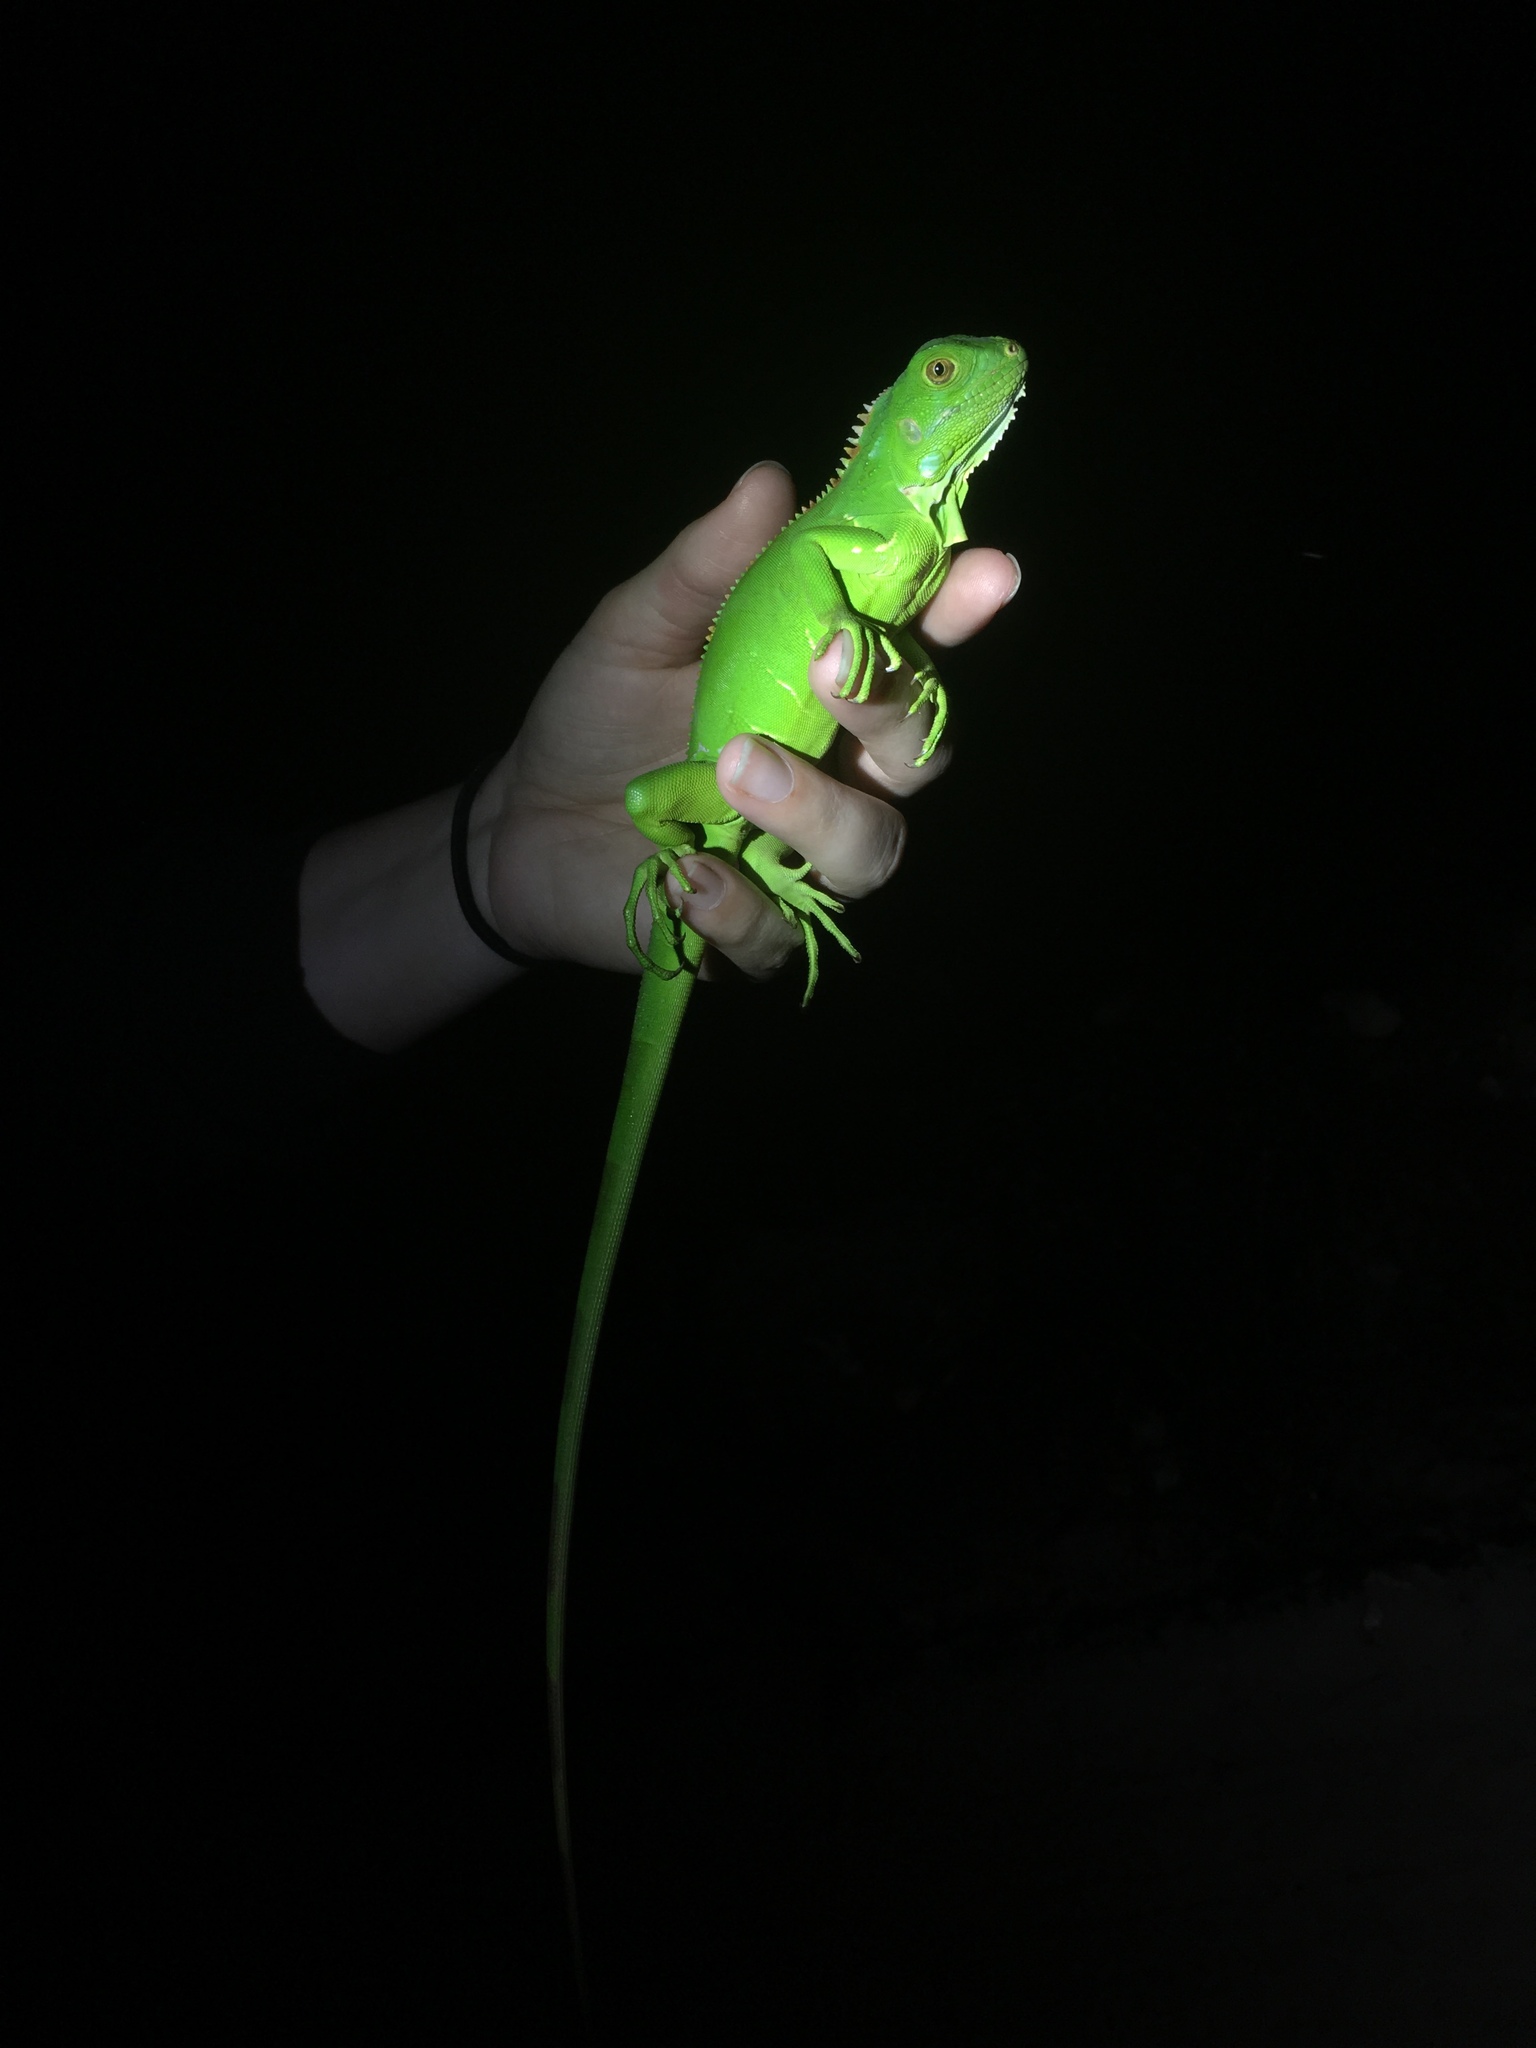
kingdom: Animalia
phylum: Chordata
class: Squamata
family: Iguanidae
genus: Iguana
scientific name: Iguana iguana
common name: Green iguana
